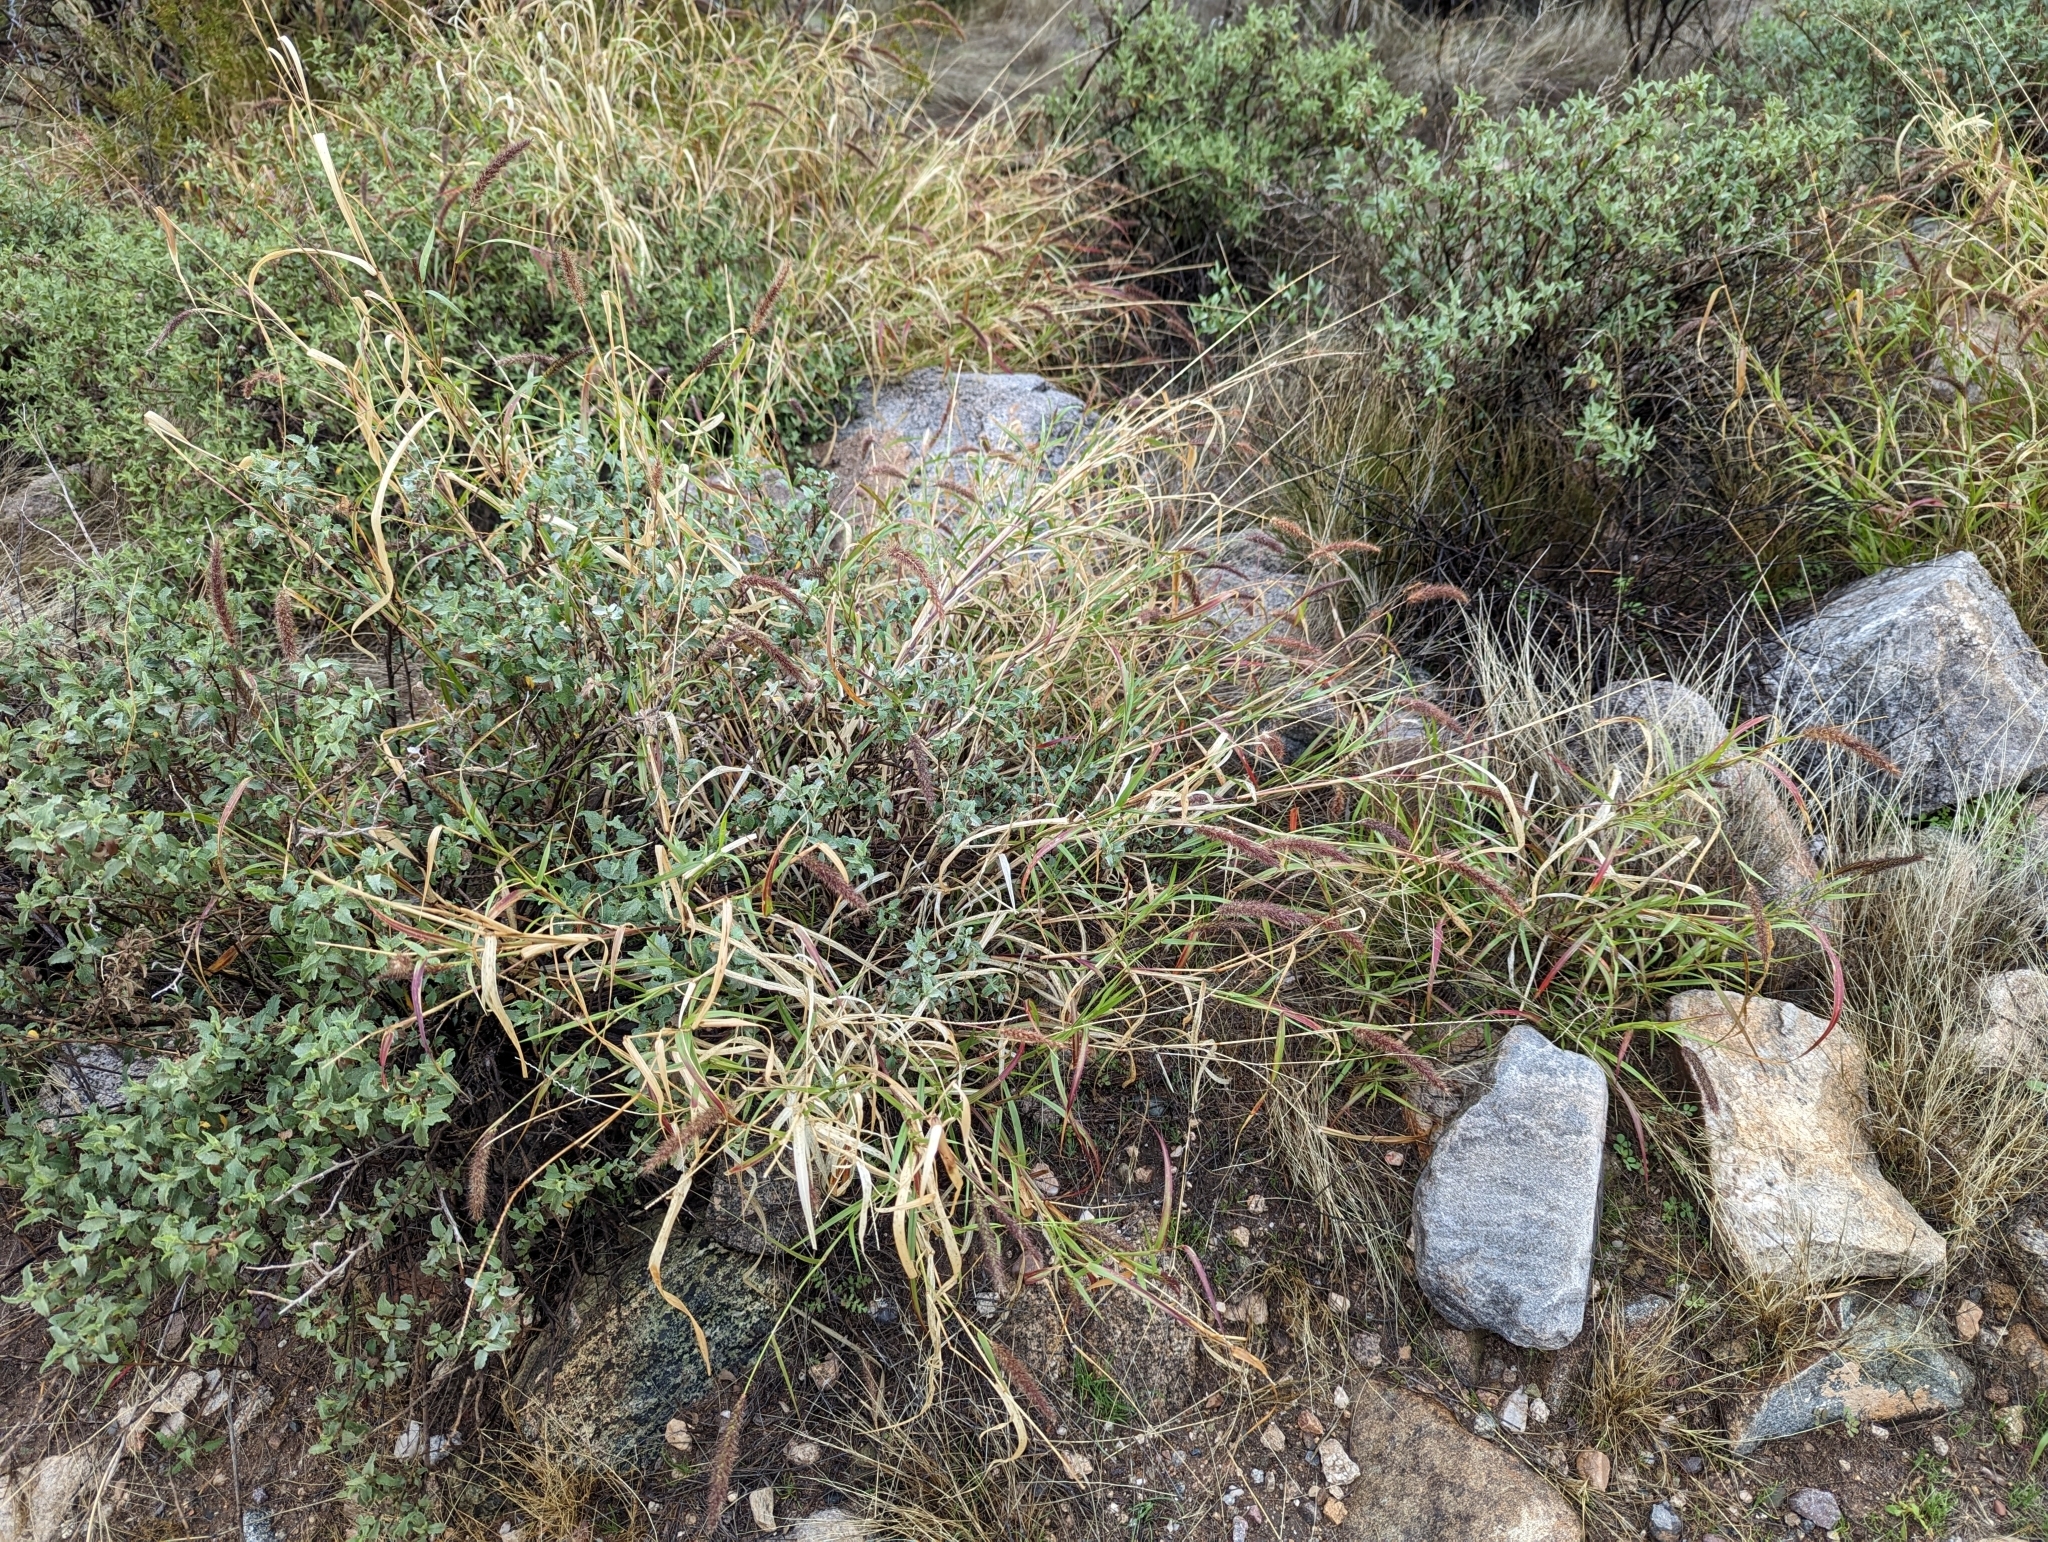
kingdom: Plantae
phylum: Tracheophyta
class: Liliopsida
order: Poales
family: Poaceae
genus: Cenchrus
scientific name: Cenchrus ciliaris
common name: Buffelgrass
